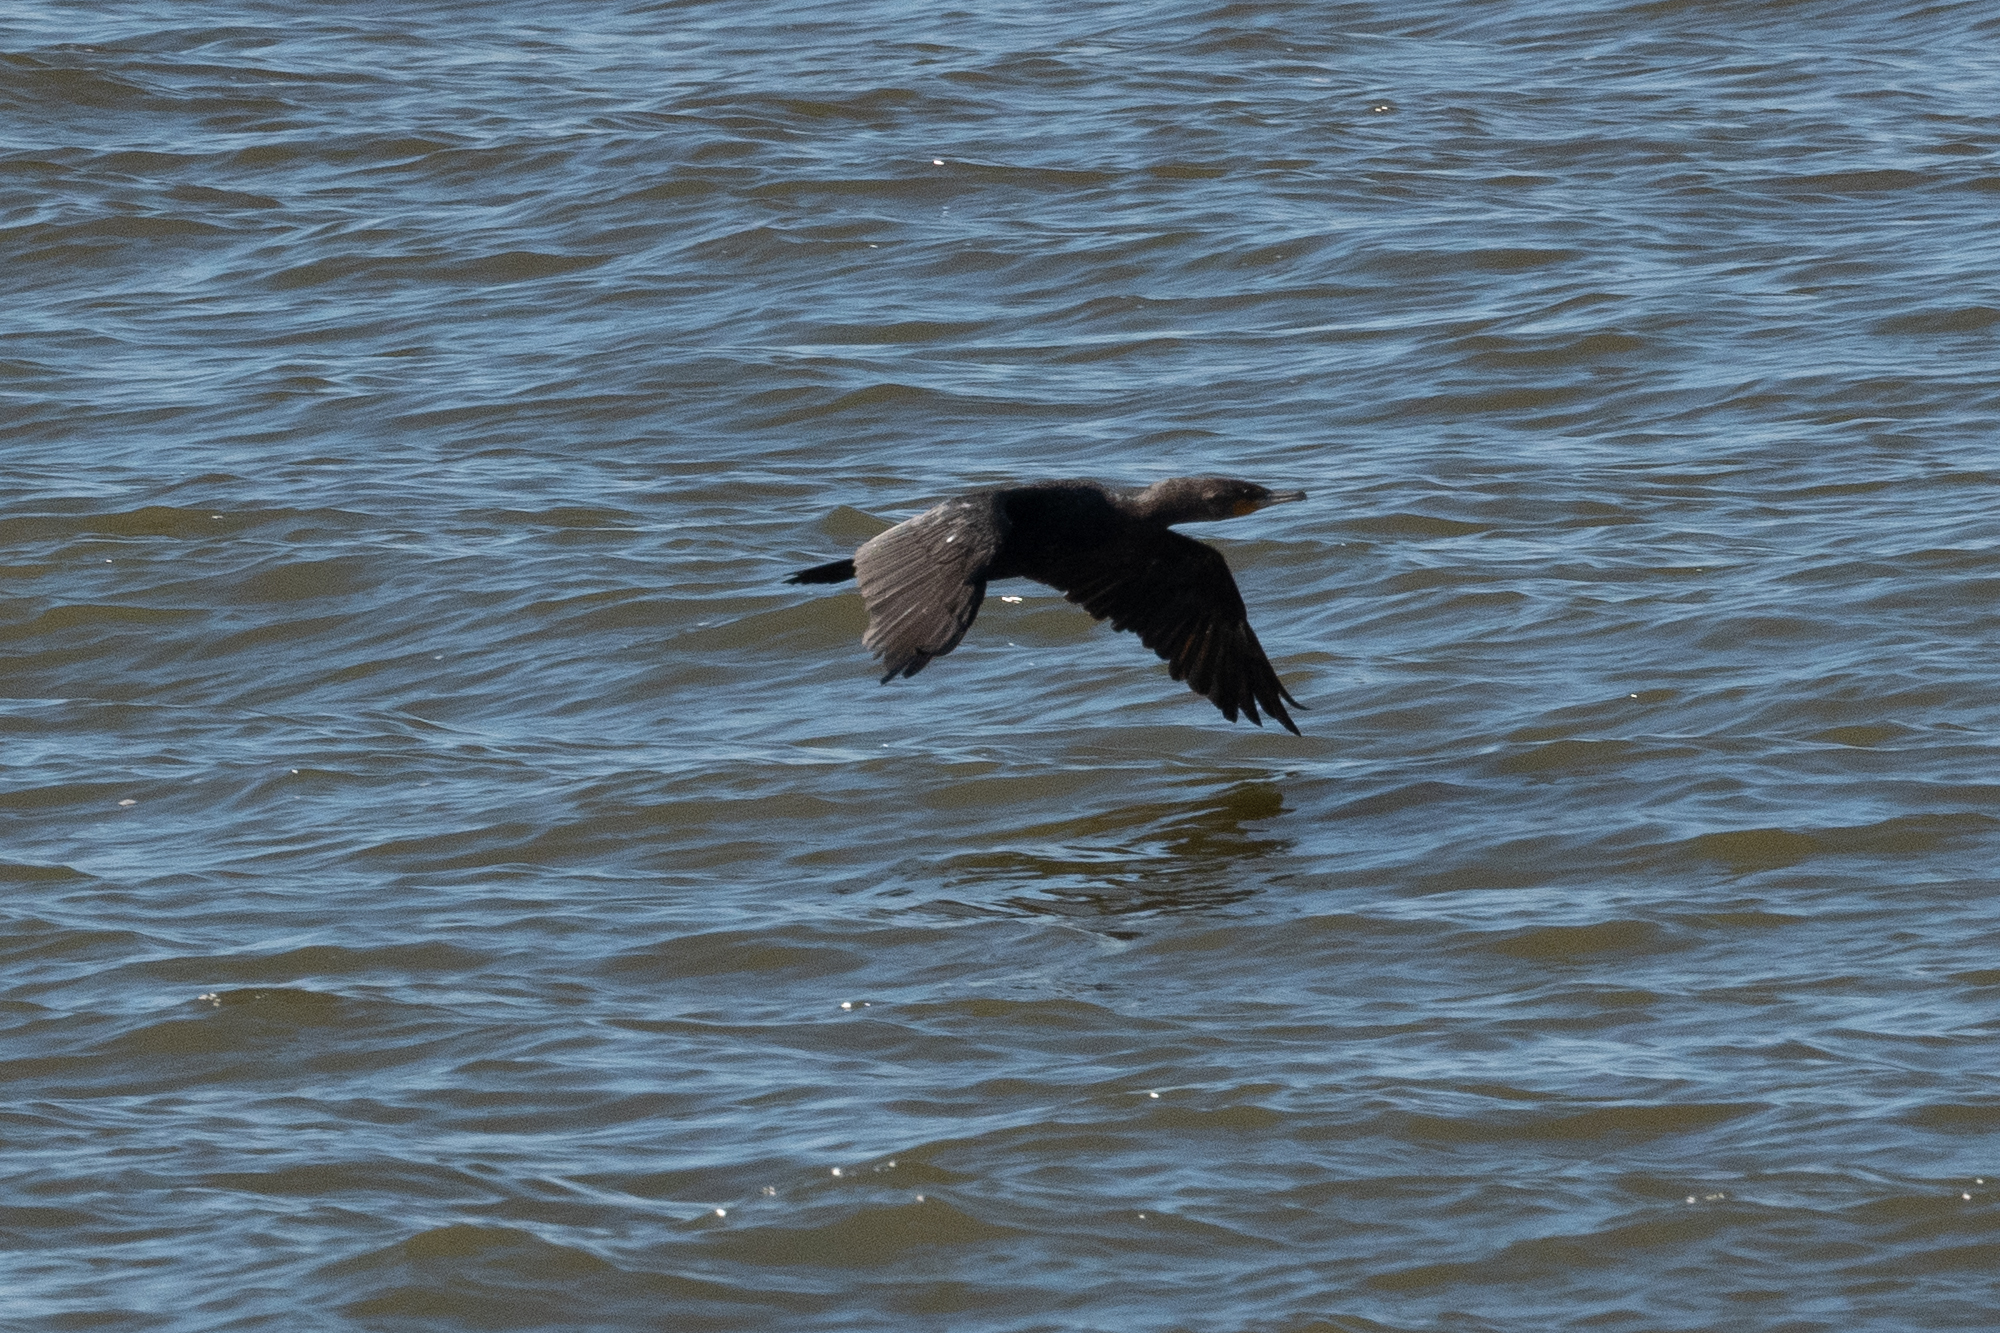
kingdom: Animalia
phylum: Chordata
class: Aves
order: Suliformes
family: Phalacrocoracidae
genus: Phalacrocorax
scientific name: Phalacrocorax auritus
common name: Double-crested cormorant
